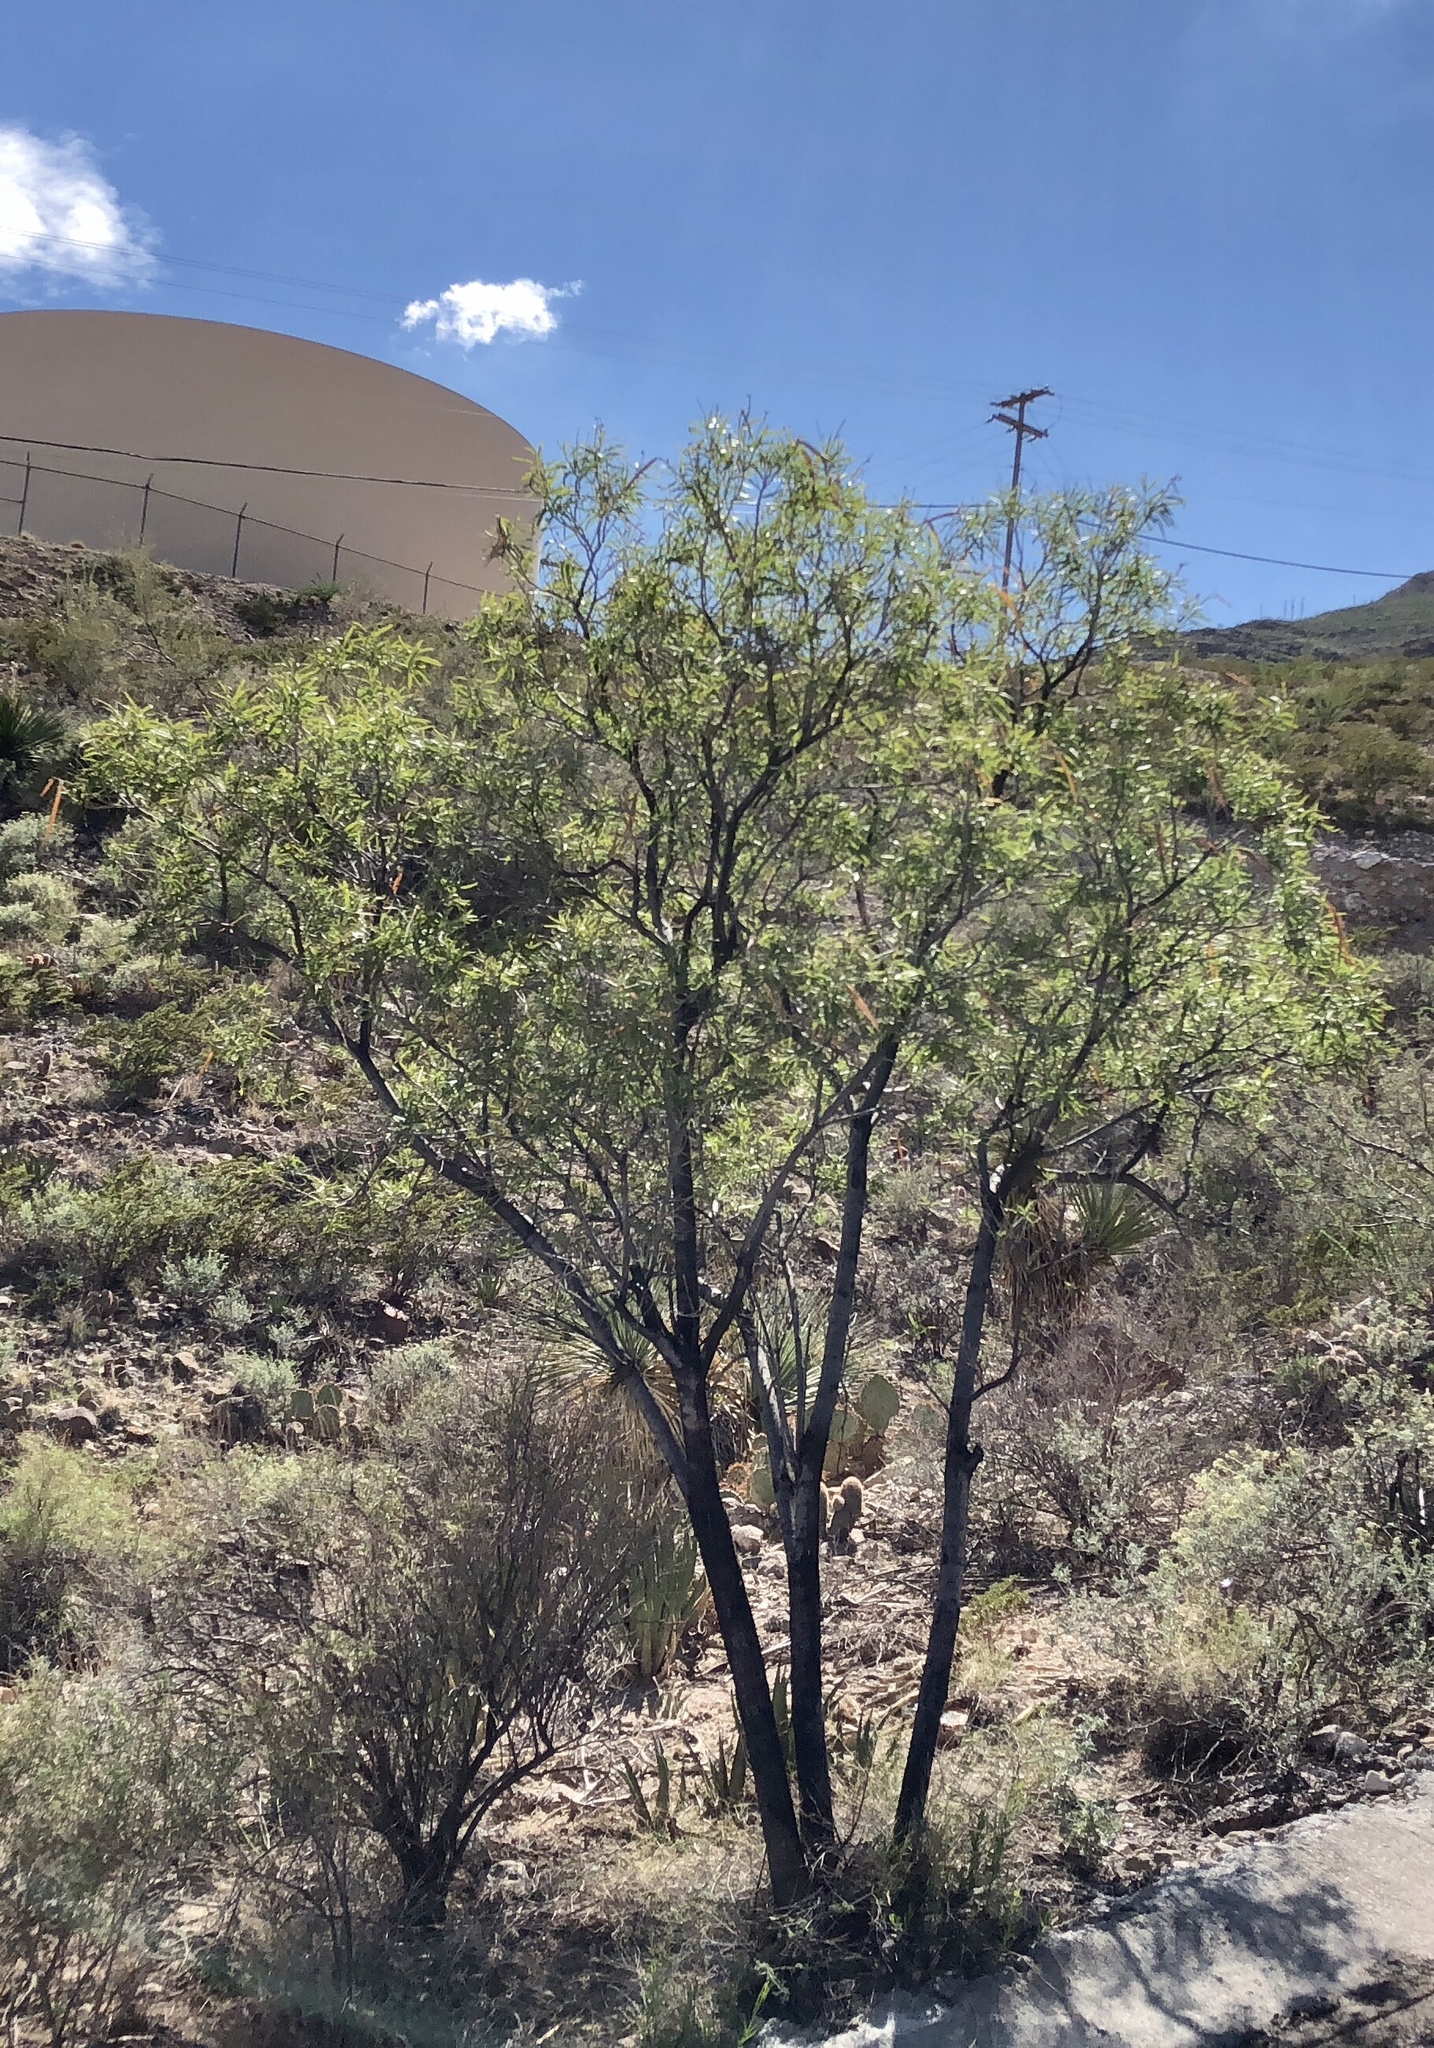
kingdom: Plantae
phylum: Tracheophyta
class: Magnoliopsida
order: Lamiales
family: Bignoniaceae
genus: Chilopsis
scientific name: Chilopsis linearis
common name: Desert-willow
